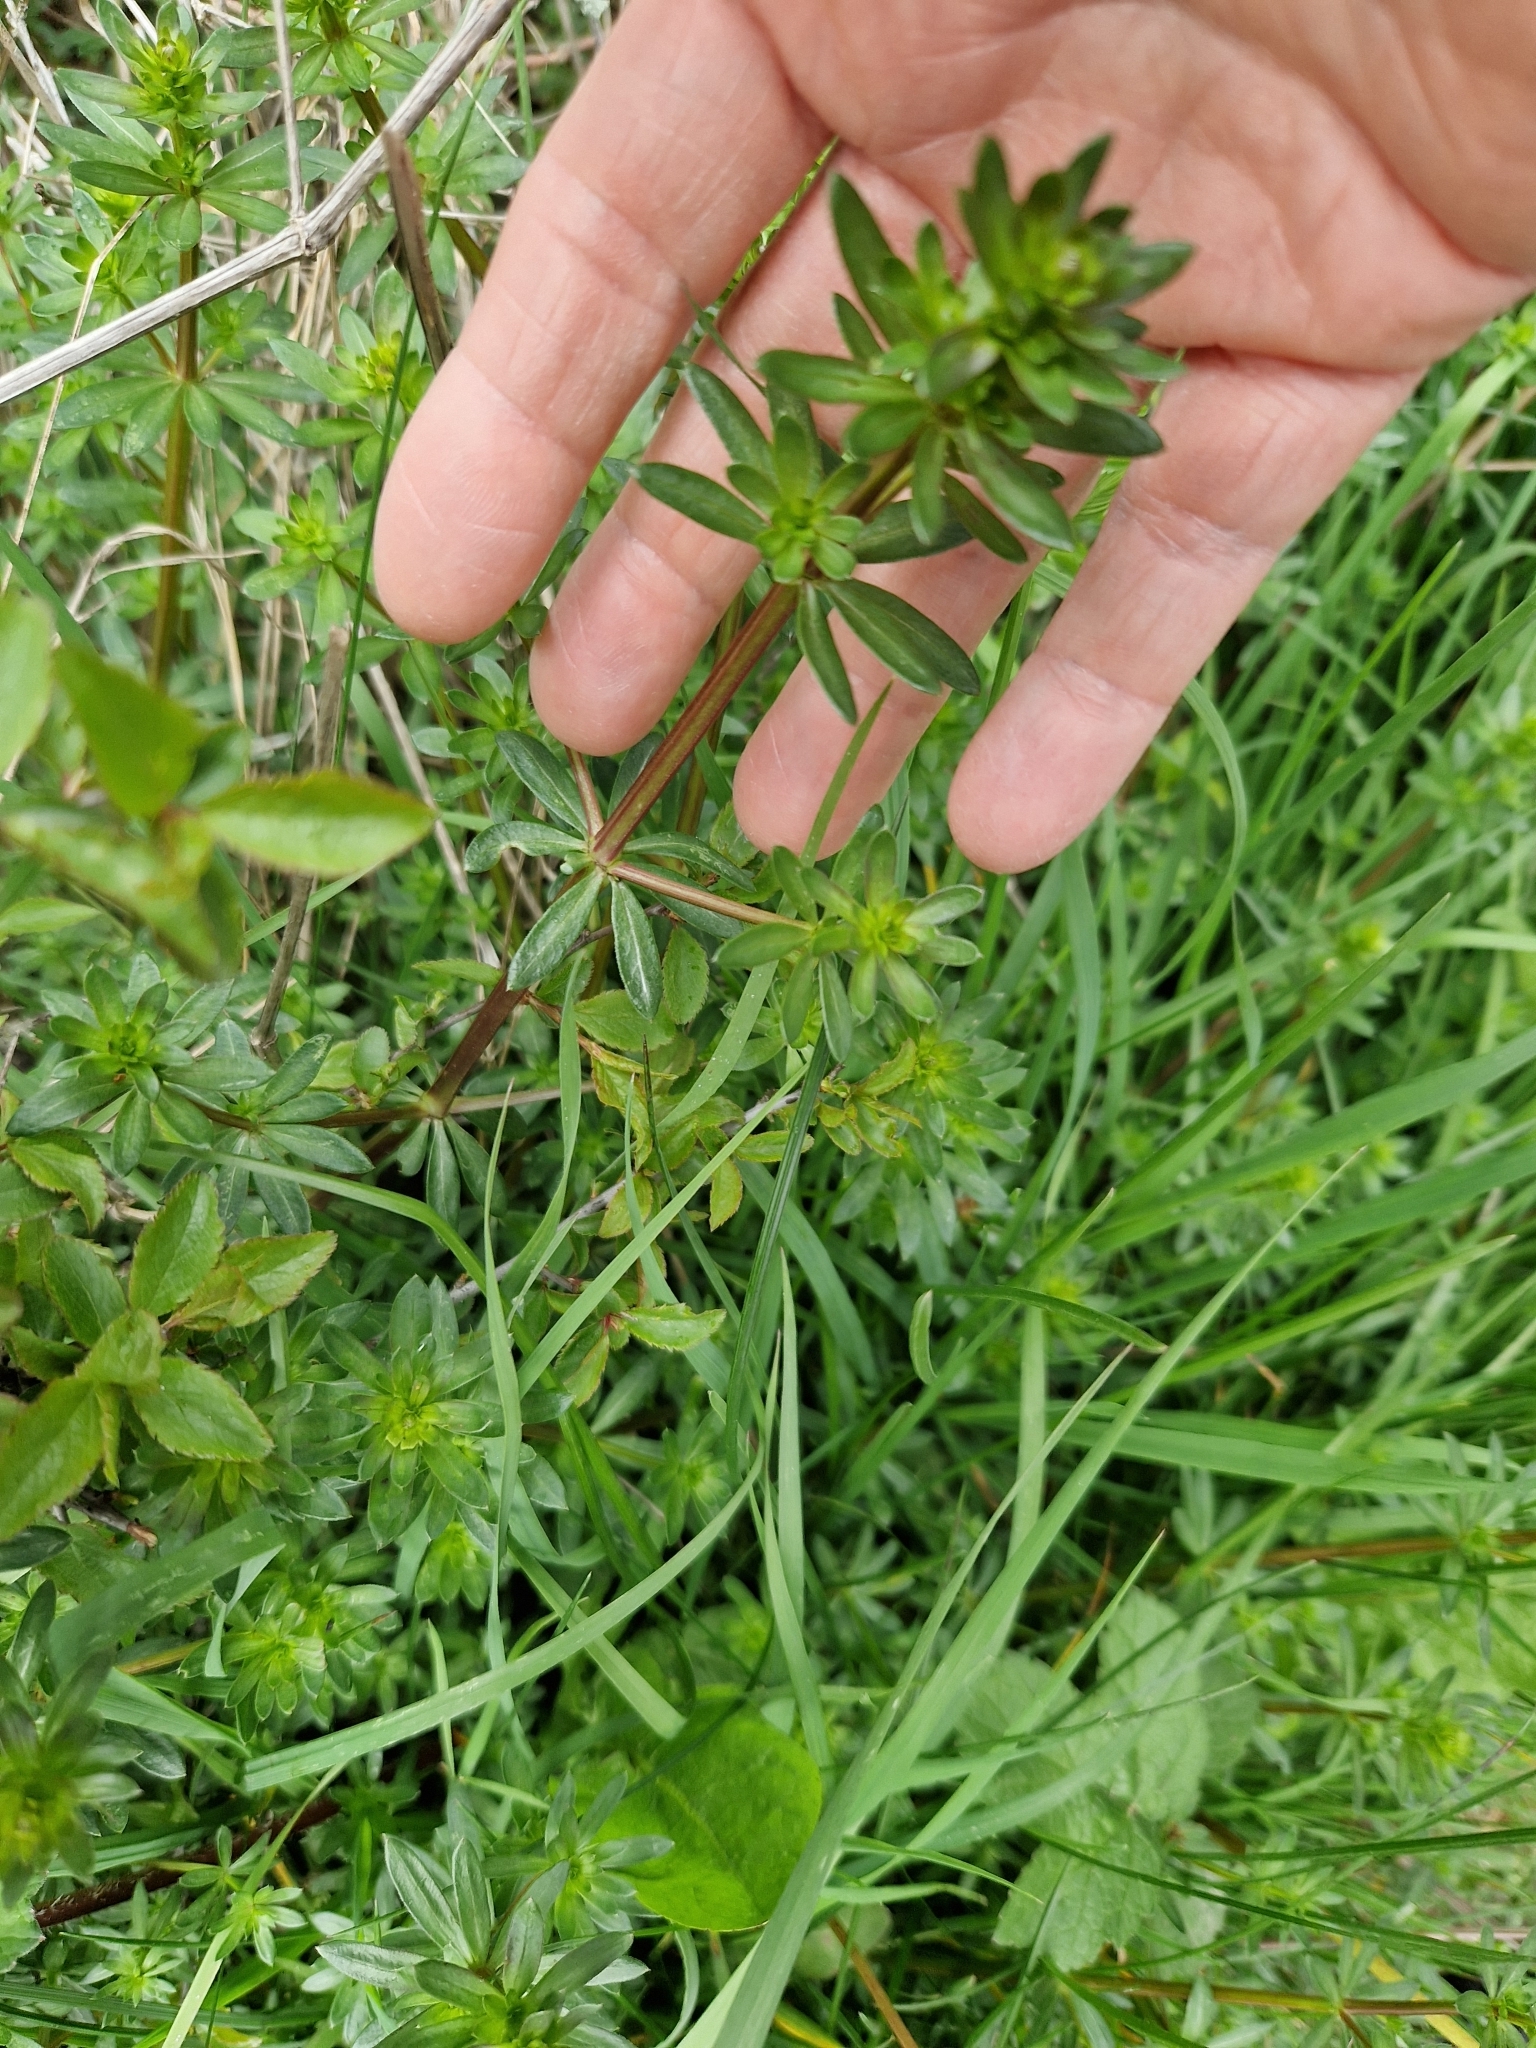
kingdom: Plantae
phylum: Tracheophyta
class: Magnoliopsida
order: Gentianales
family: Rubiaceae
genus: Galium
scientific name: Galium mollugo
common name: Hedge bedstraw
